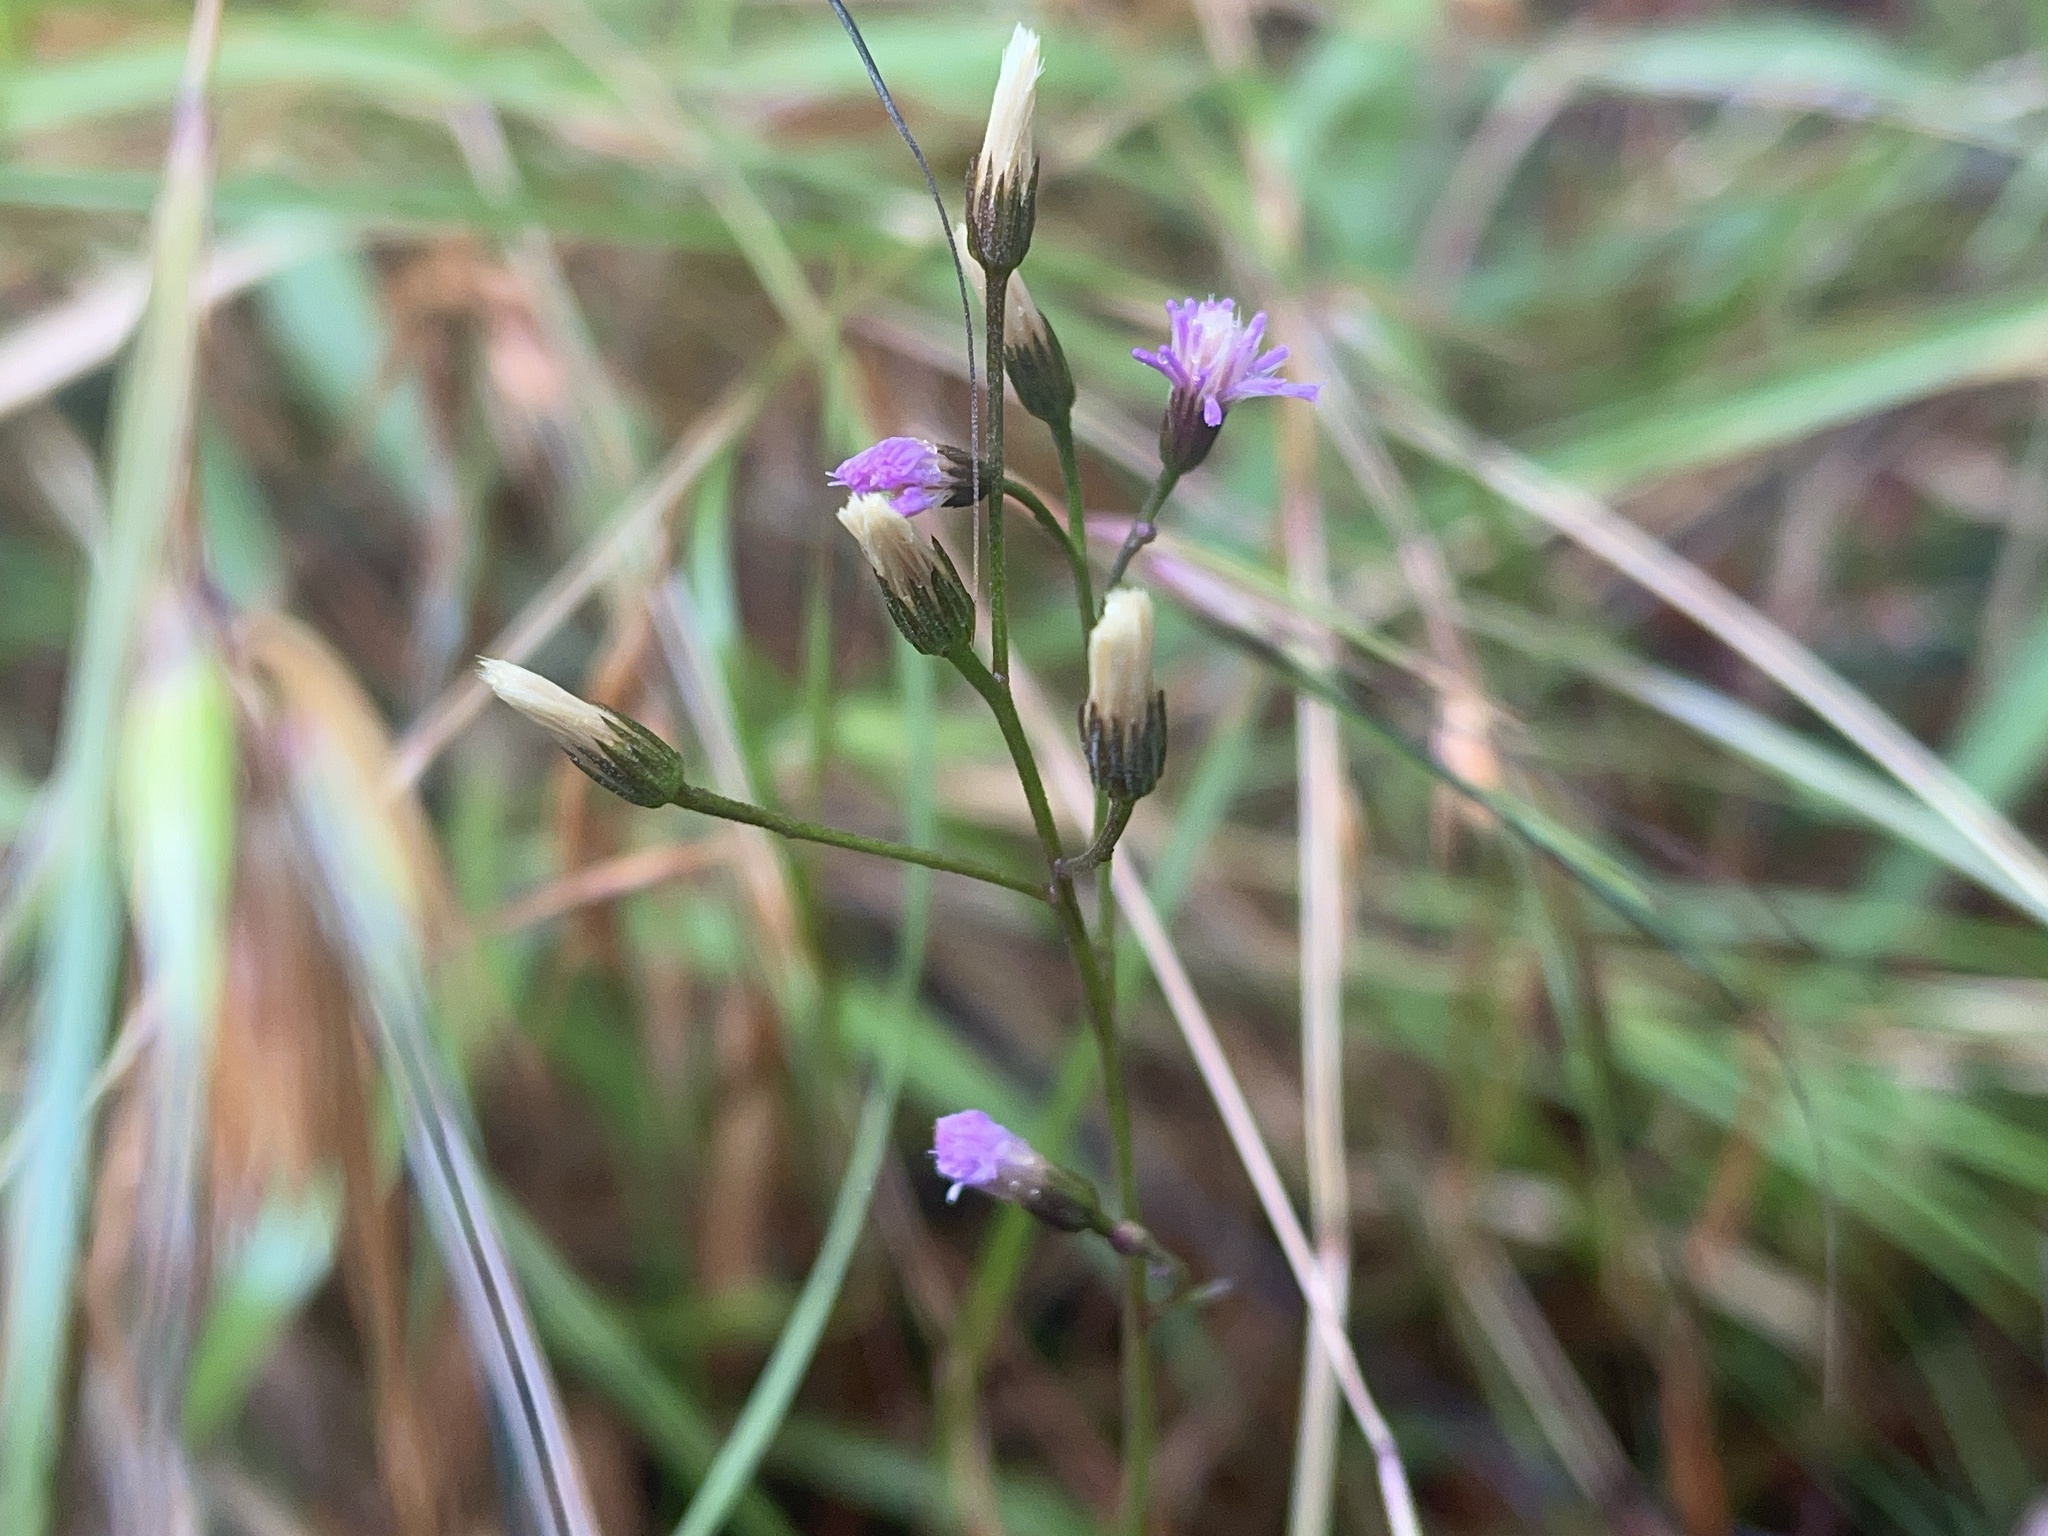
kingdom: Plantae
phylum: Tracheophyta
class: Magnoliopsida
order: Asterales
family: Asteraceae
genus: Cyanthillium
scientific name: Cyanthillium cinereum
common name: Little ironweed
